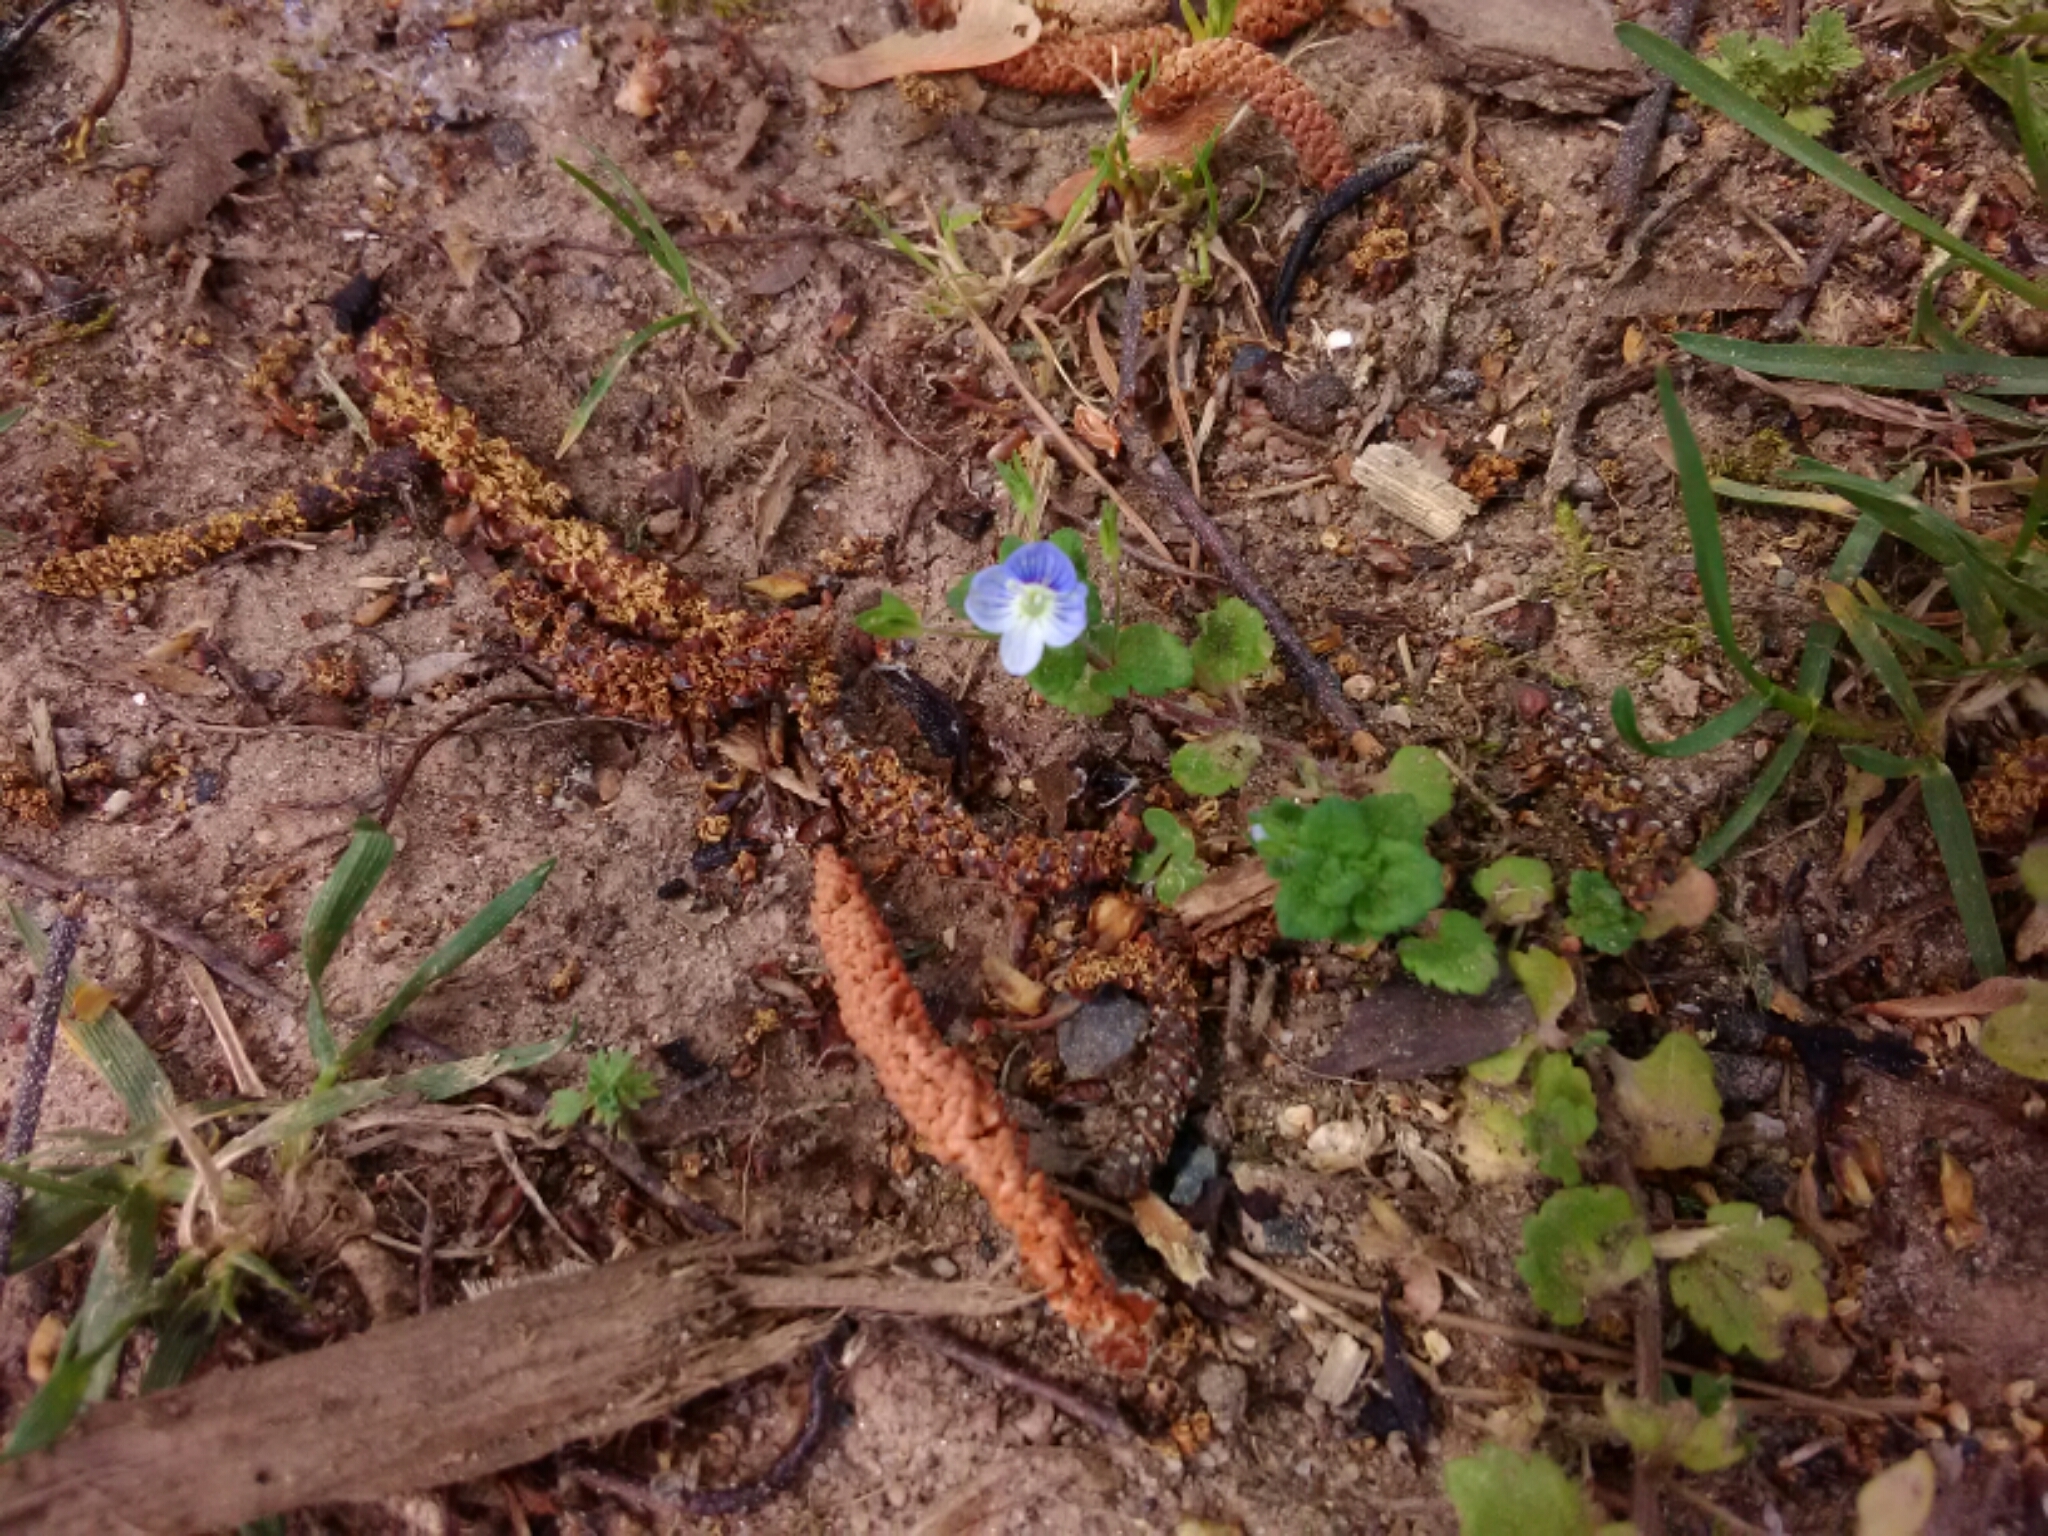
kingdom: Plantae
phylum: Tracheophyta
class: Magnoliopsida
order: Lamiales
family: Plantaginaceae
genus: Veronica
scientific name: Veronica persica
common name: Common field-speedwell
